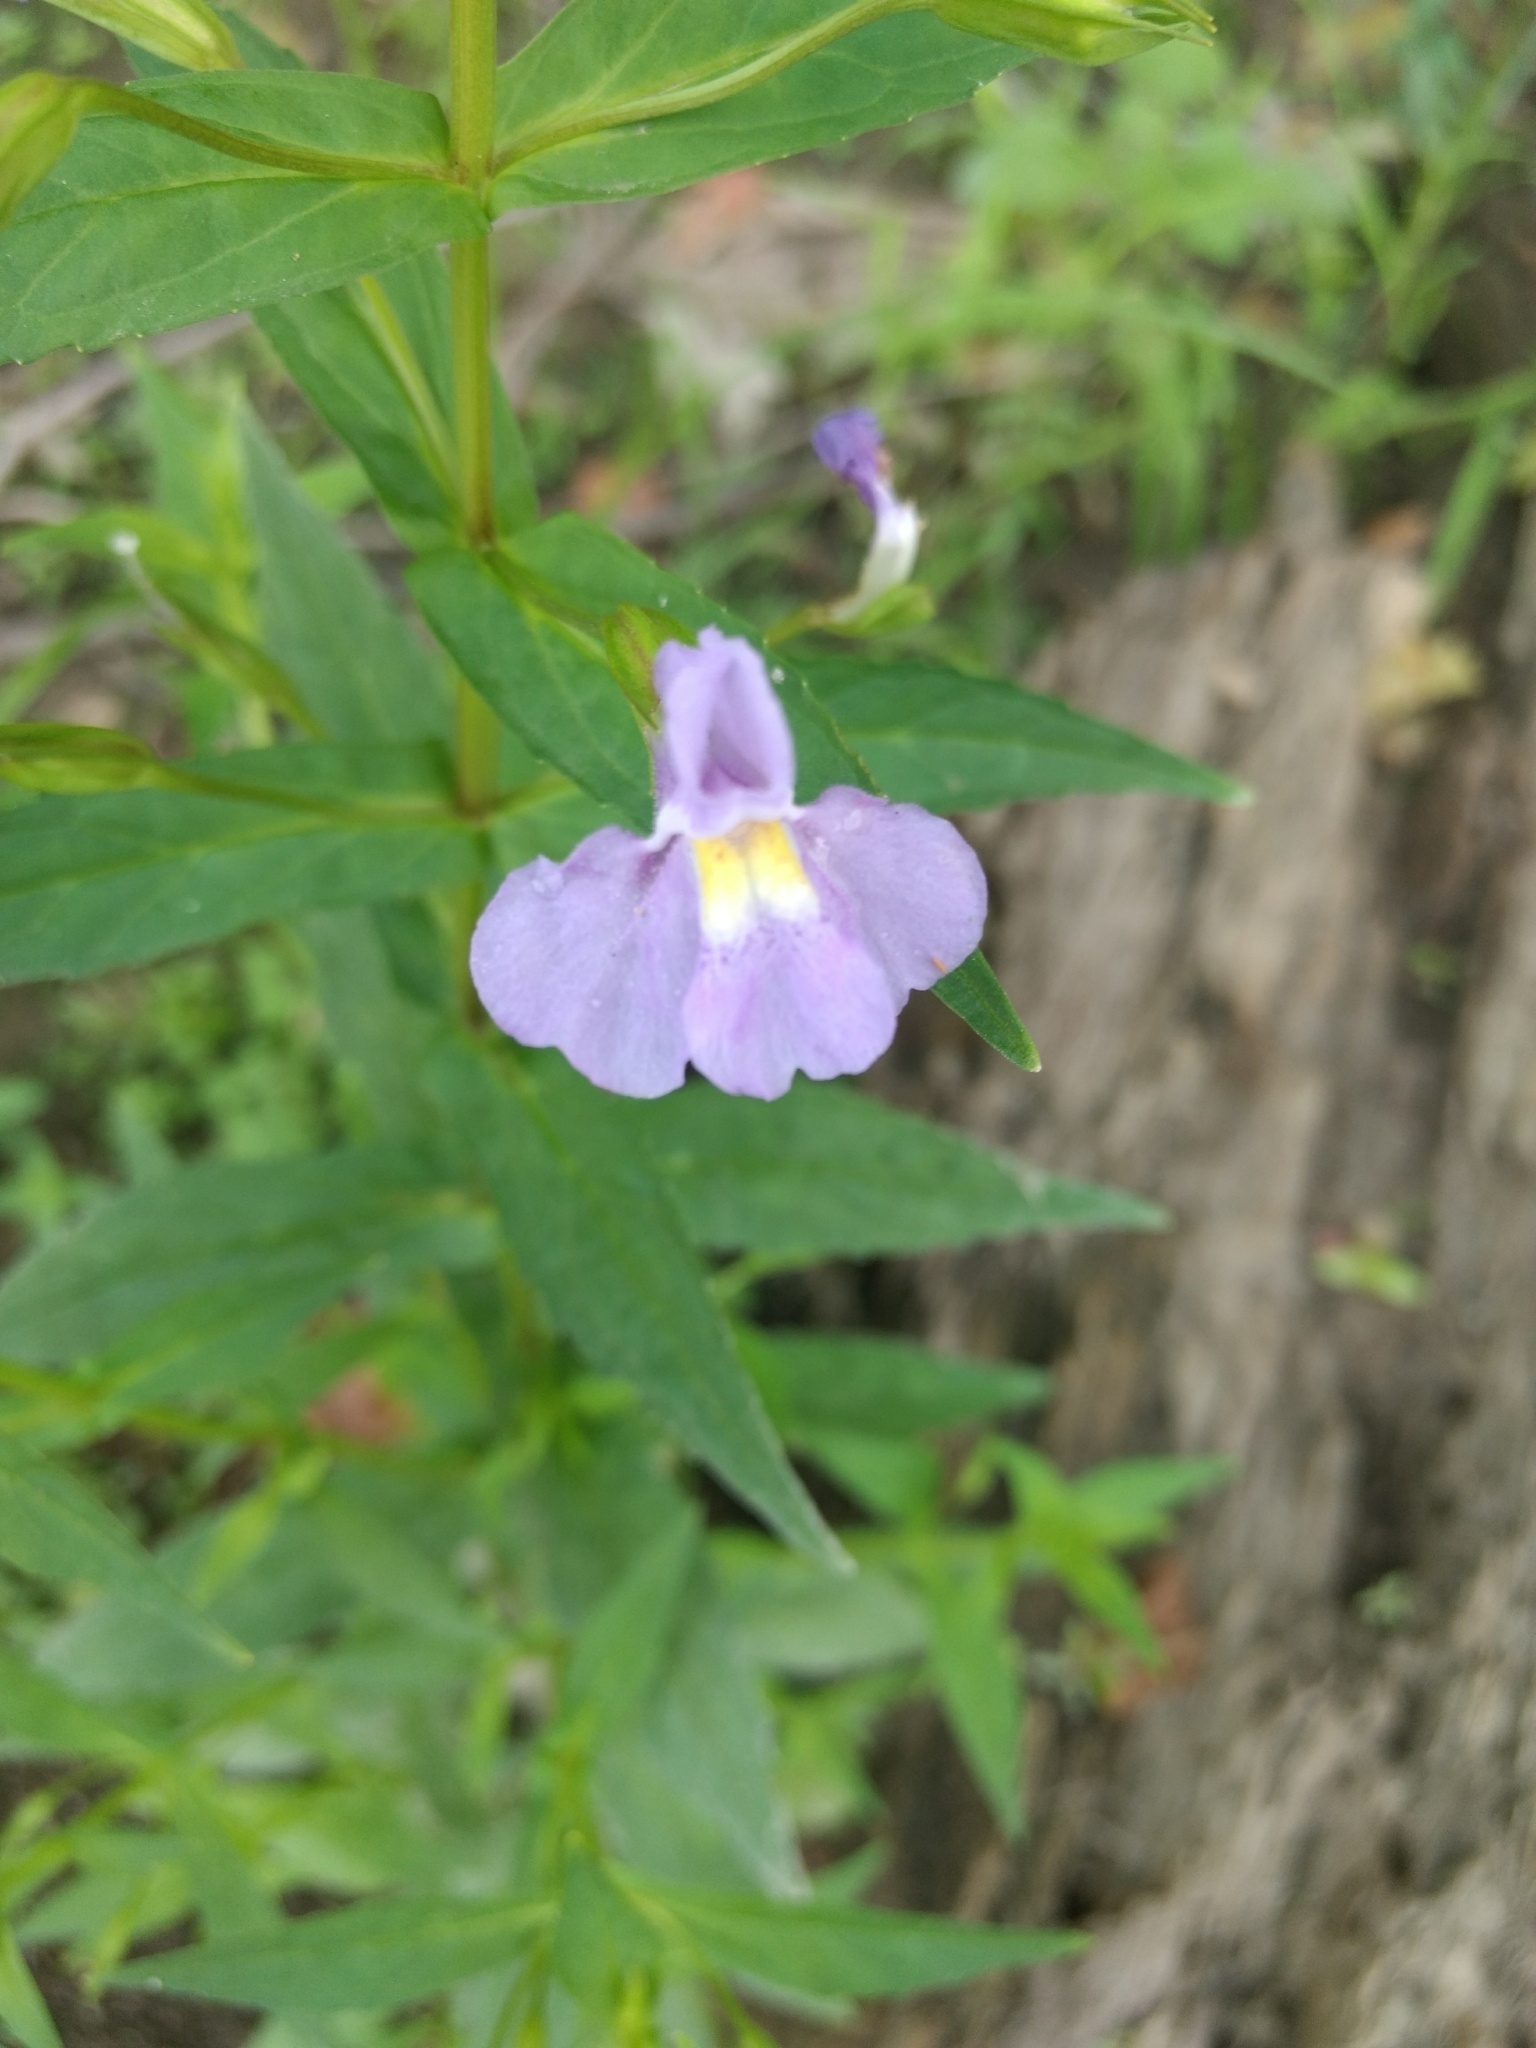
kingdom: Plantae
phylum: Tracheophyta
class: Magnoliopsida
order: Lamiales
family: Phrymaceae
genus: Mimulus
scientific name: Mimulus ringens
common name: Allegheny monkeyflower
